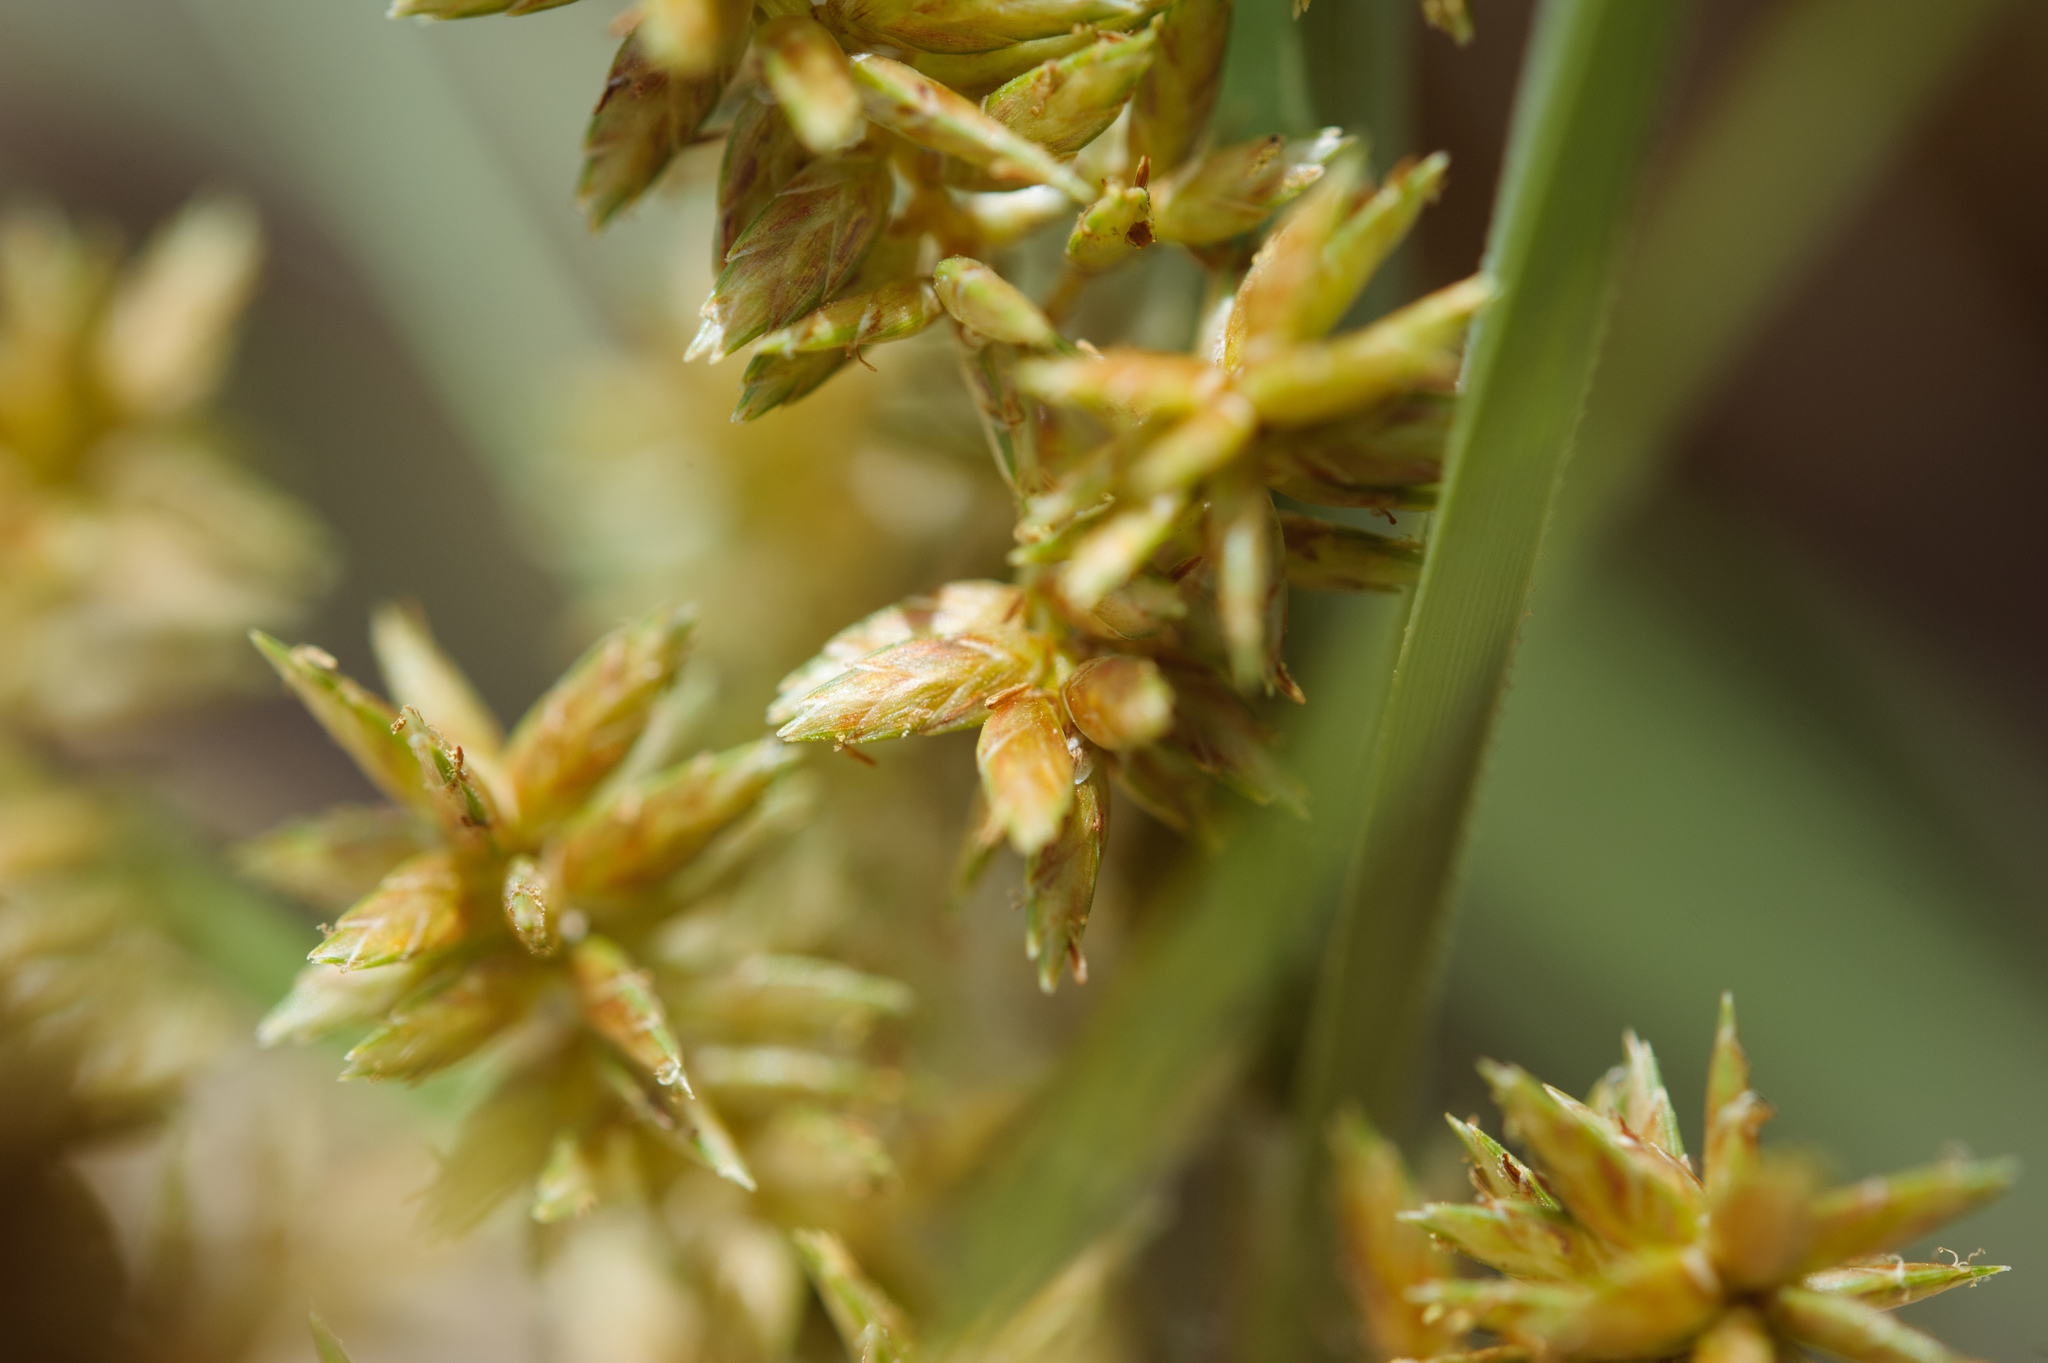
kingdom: Plantae
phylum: Tracheophyta
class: Liliopsida
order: Poales
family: Cyperaceae
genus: Cyperus
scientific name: Cyperus javanicus
